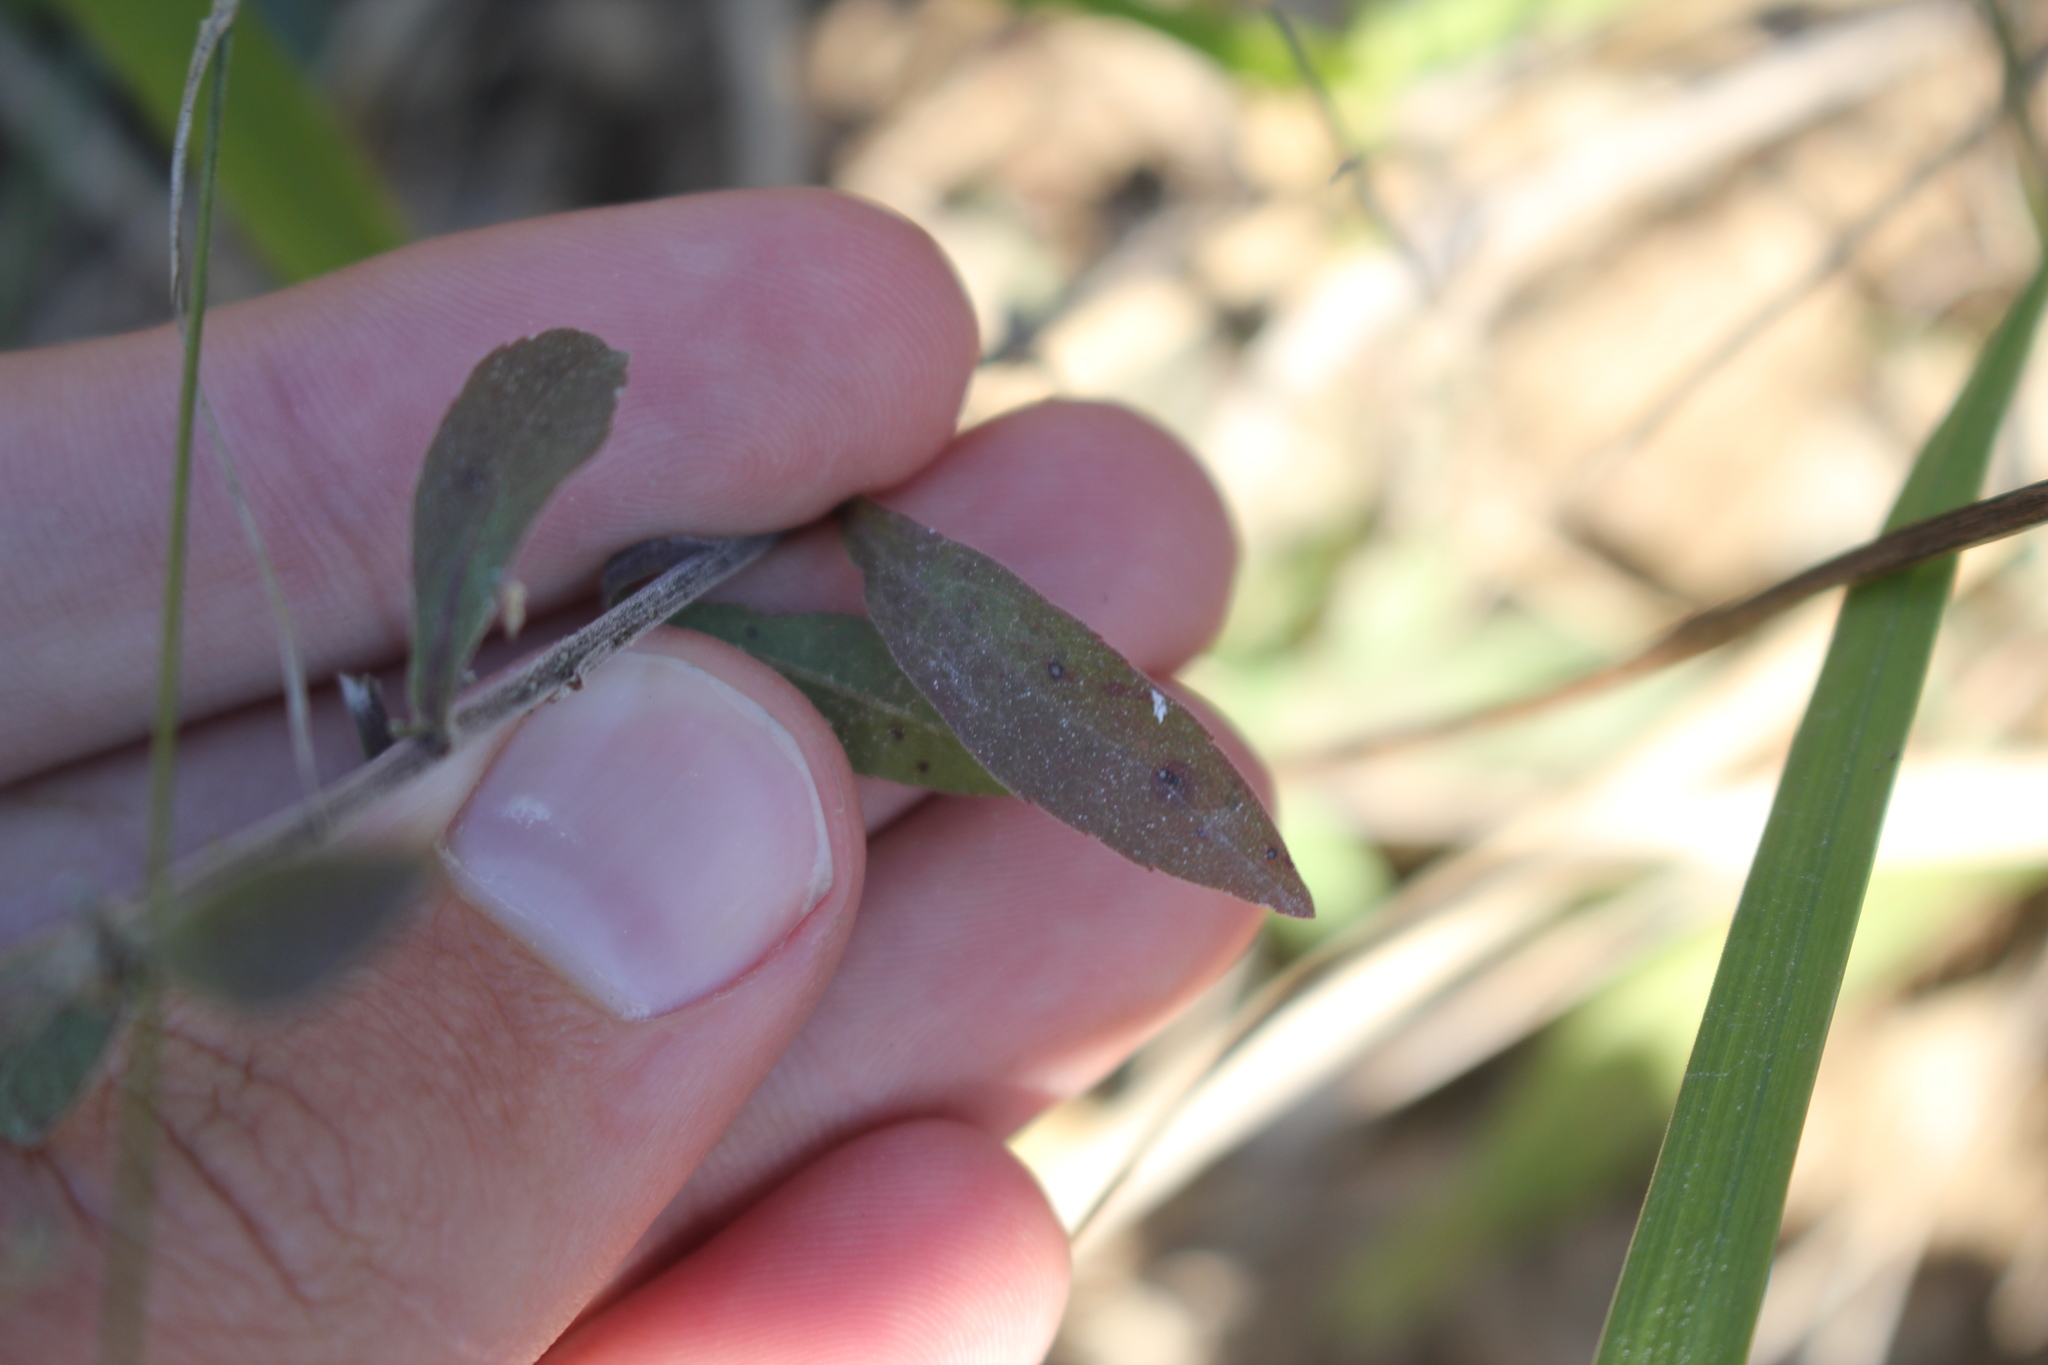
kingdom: Plantae
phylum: Tracheophyta
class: Magnoliopsida
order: Asterales
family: Asteraceae
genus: Solidago
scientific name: Solidago nemoralis
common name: Grey goldenrod
